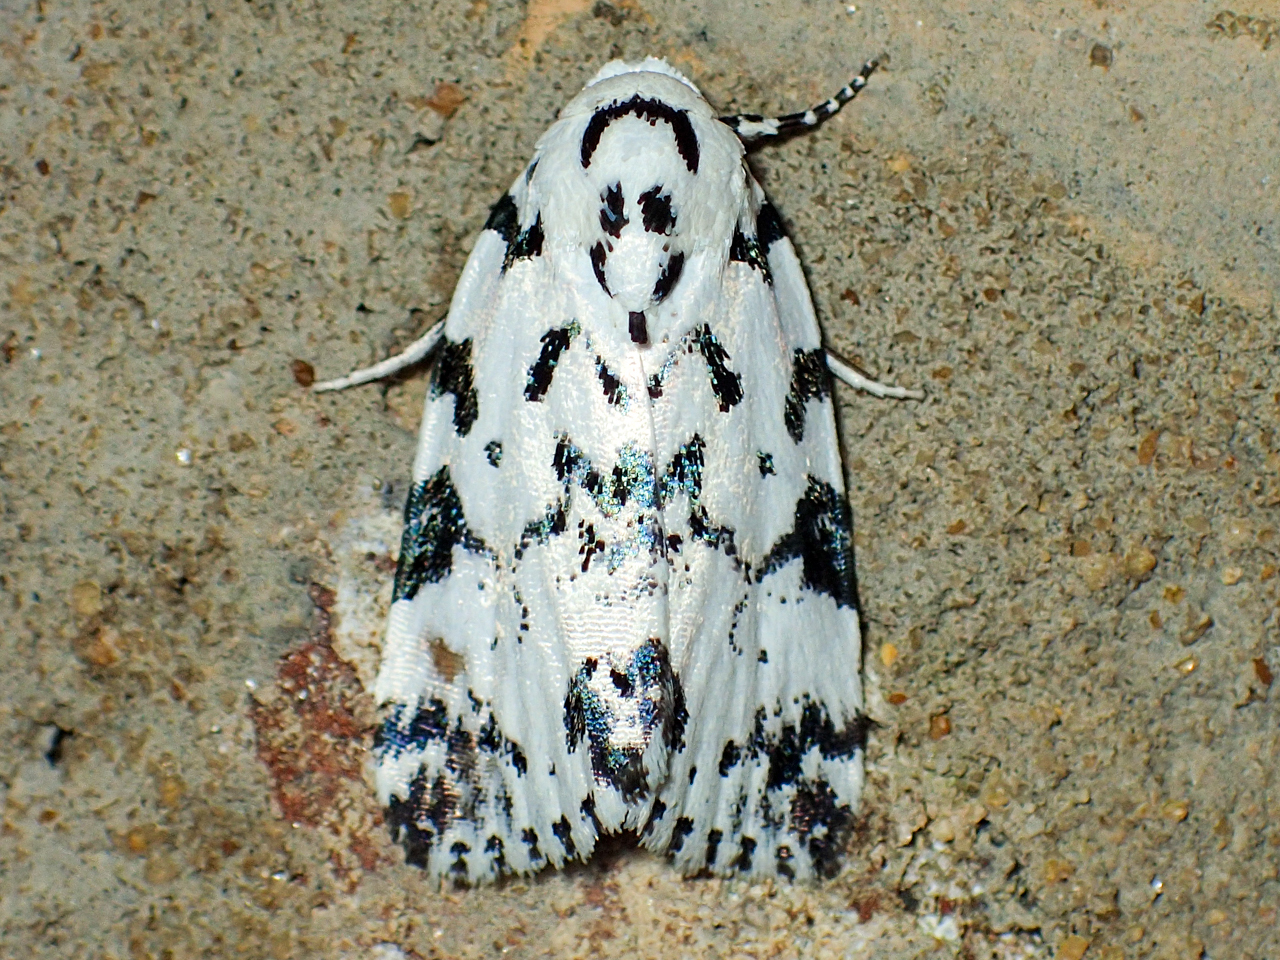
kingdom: Animalia
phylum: Arthropoda
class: Insecta
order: Lepidoptera
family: Noctuidae
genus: Polygrammate
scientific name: Polygrammate hebraeicum
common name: Hebrew moth
